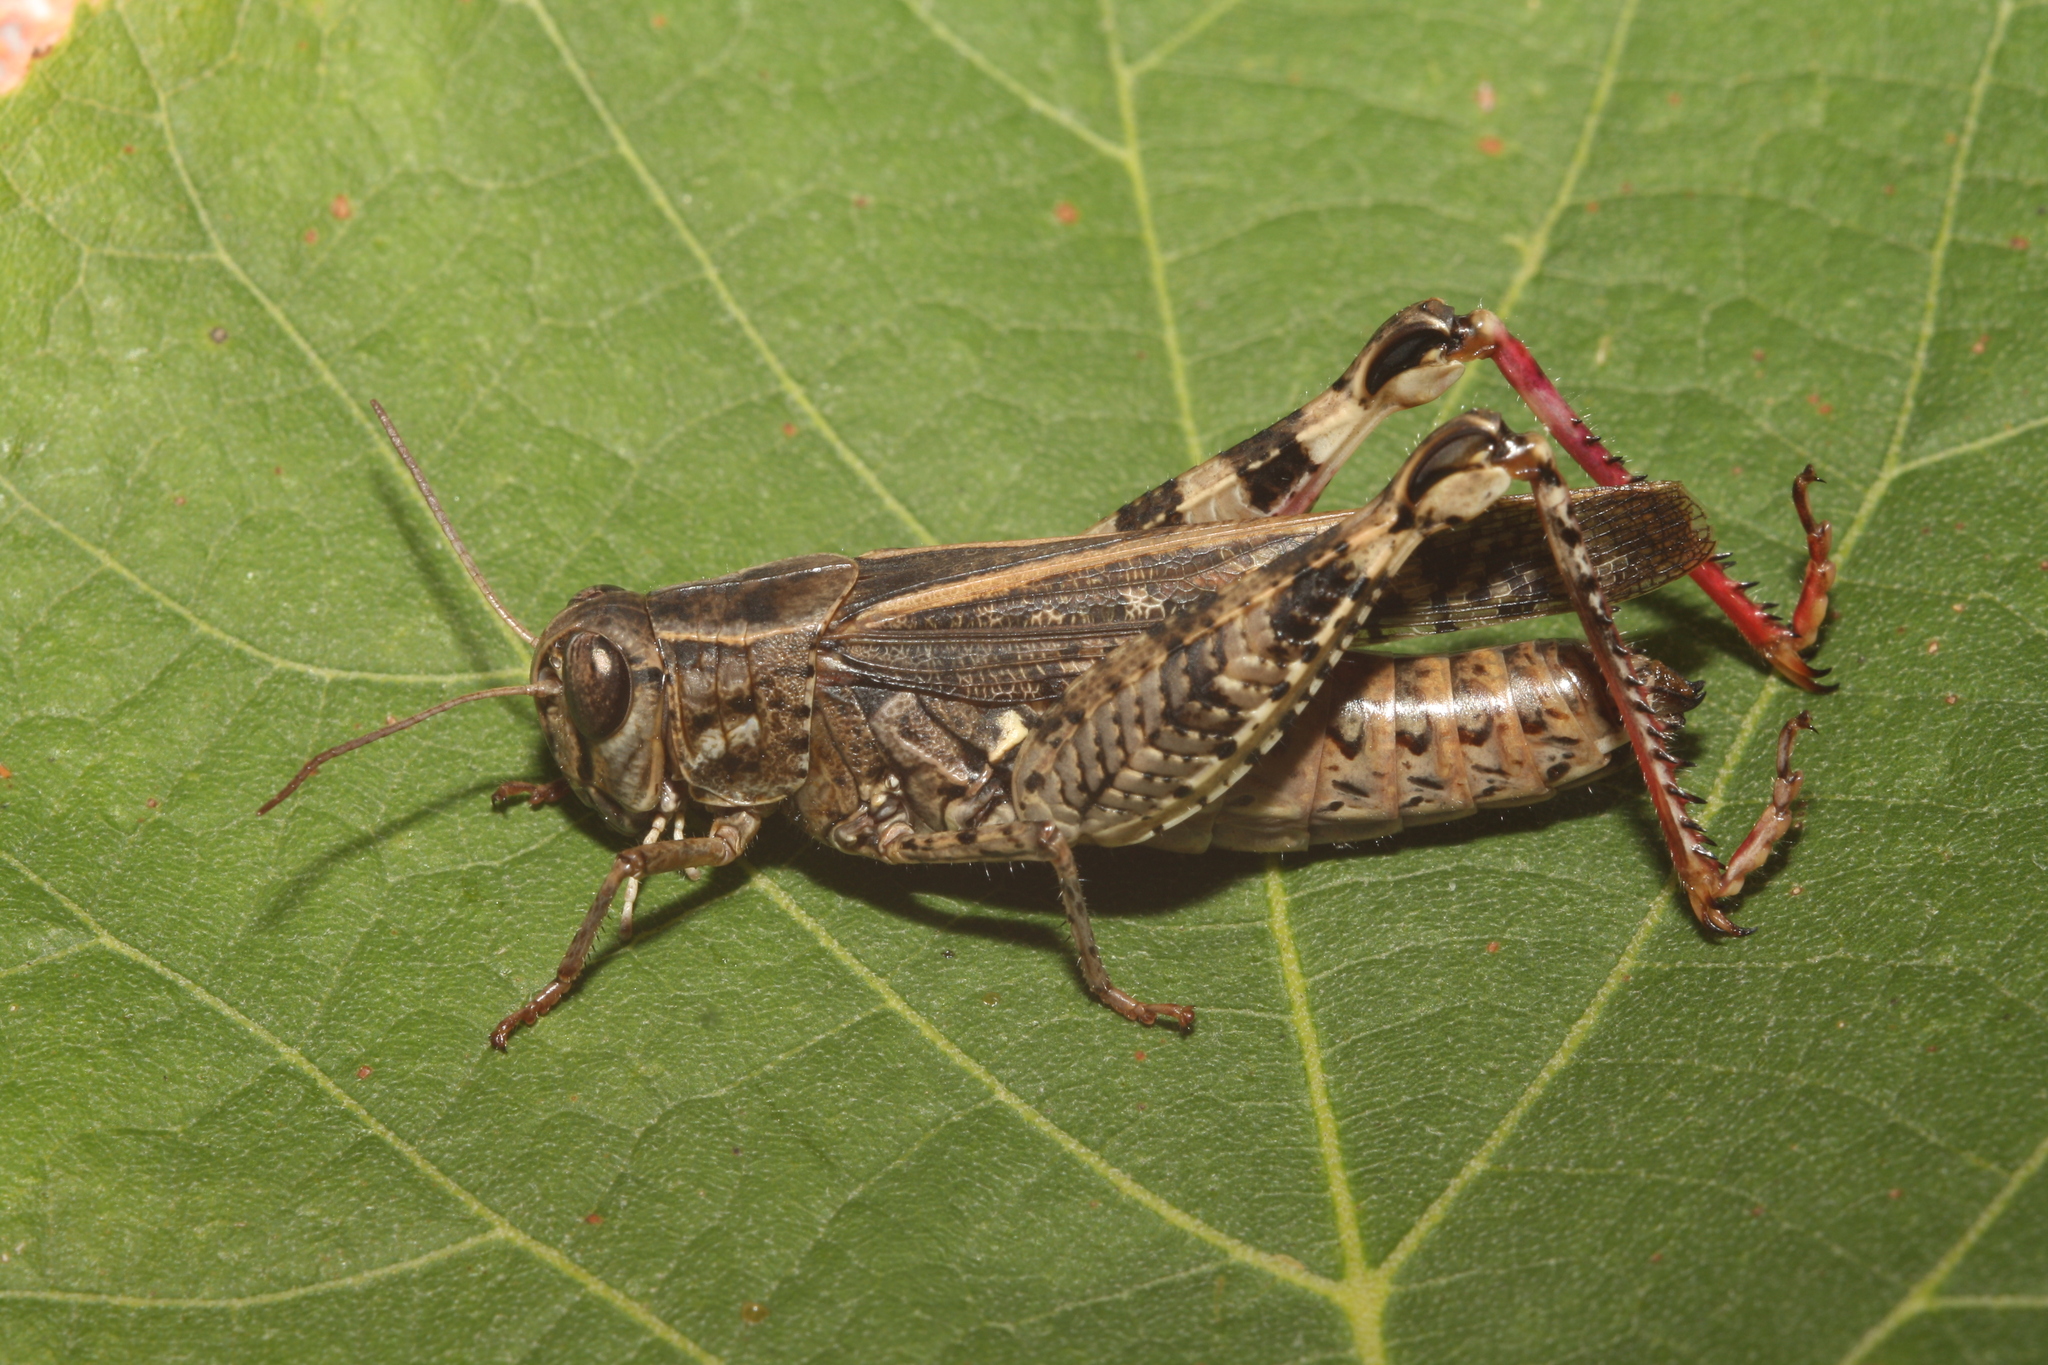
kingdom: Animalia
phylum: Arthropoda
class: Insecta
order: Orthoptera
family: Acrididae
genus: Calliptamus
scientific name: Calliptamus italicus
